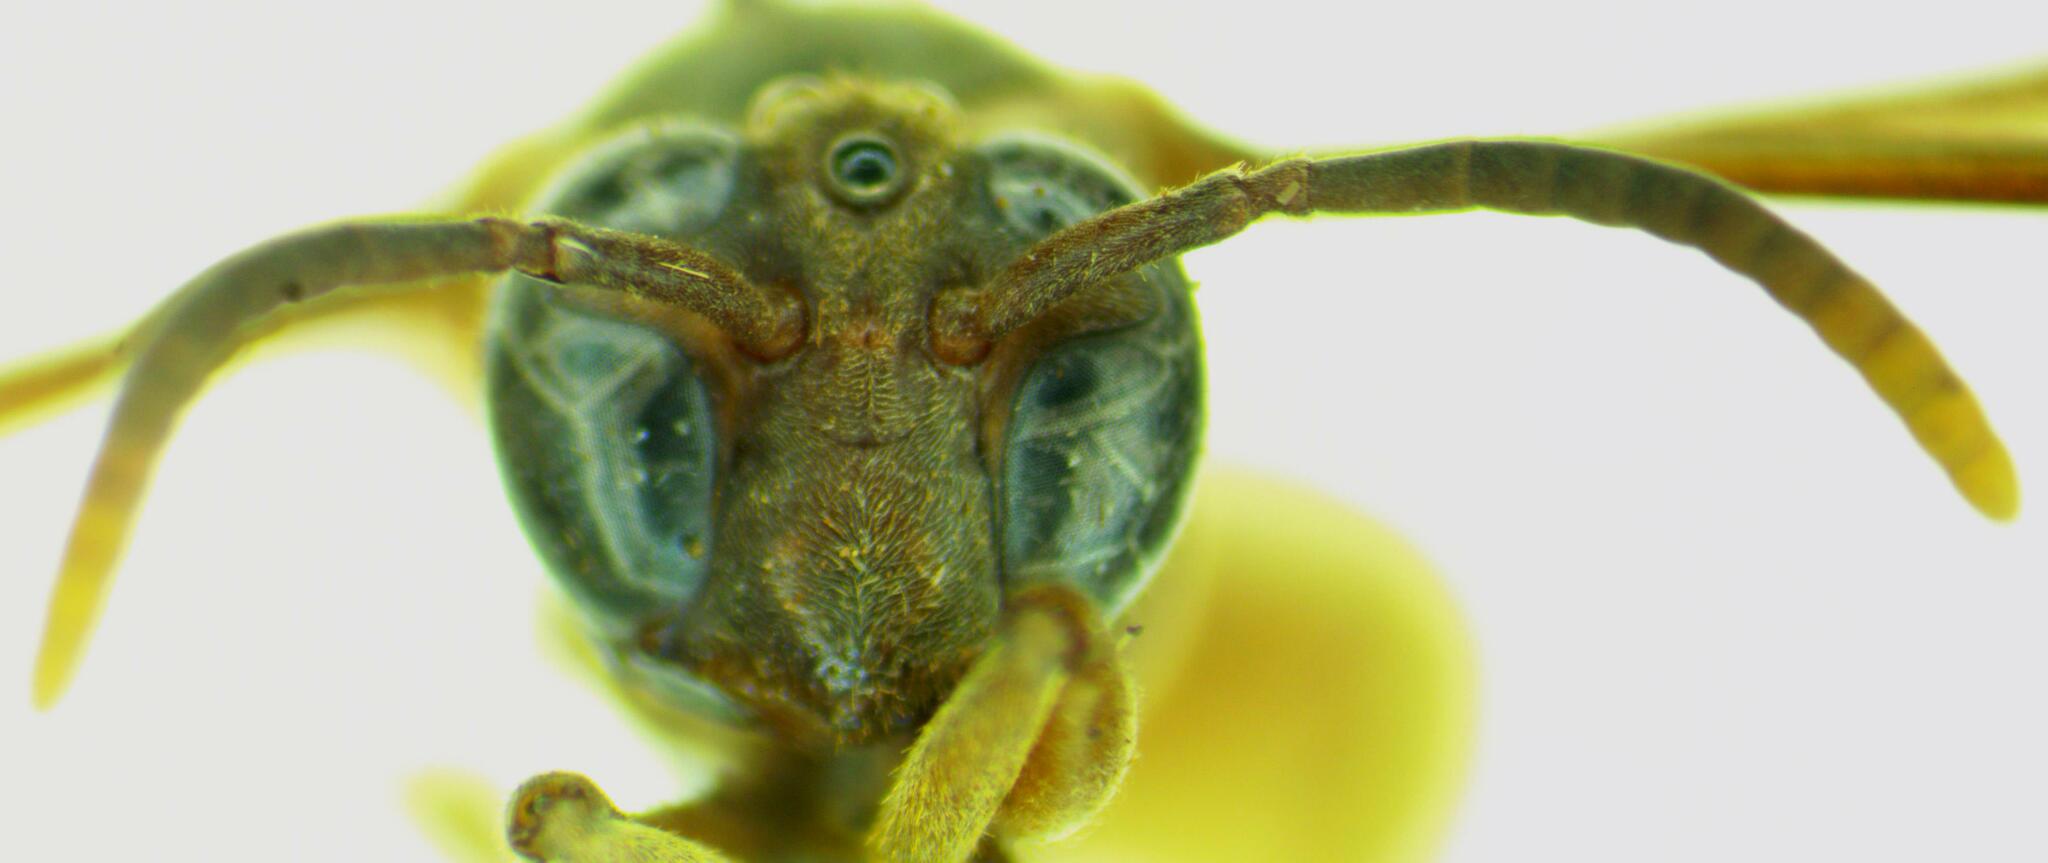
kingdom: Animalia
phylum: Arthropoda
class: Insecta
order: Hymenoptera
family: Vespidae
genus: Apoica
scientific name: Apoica pallens
